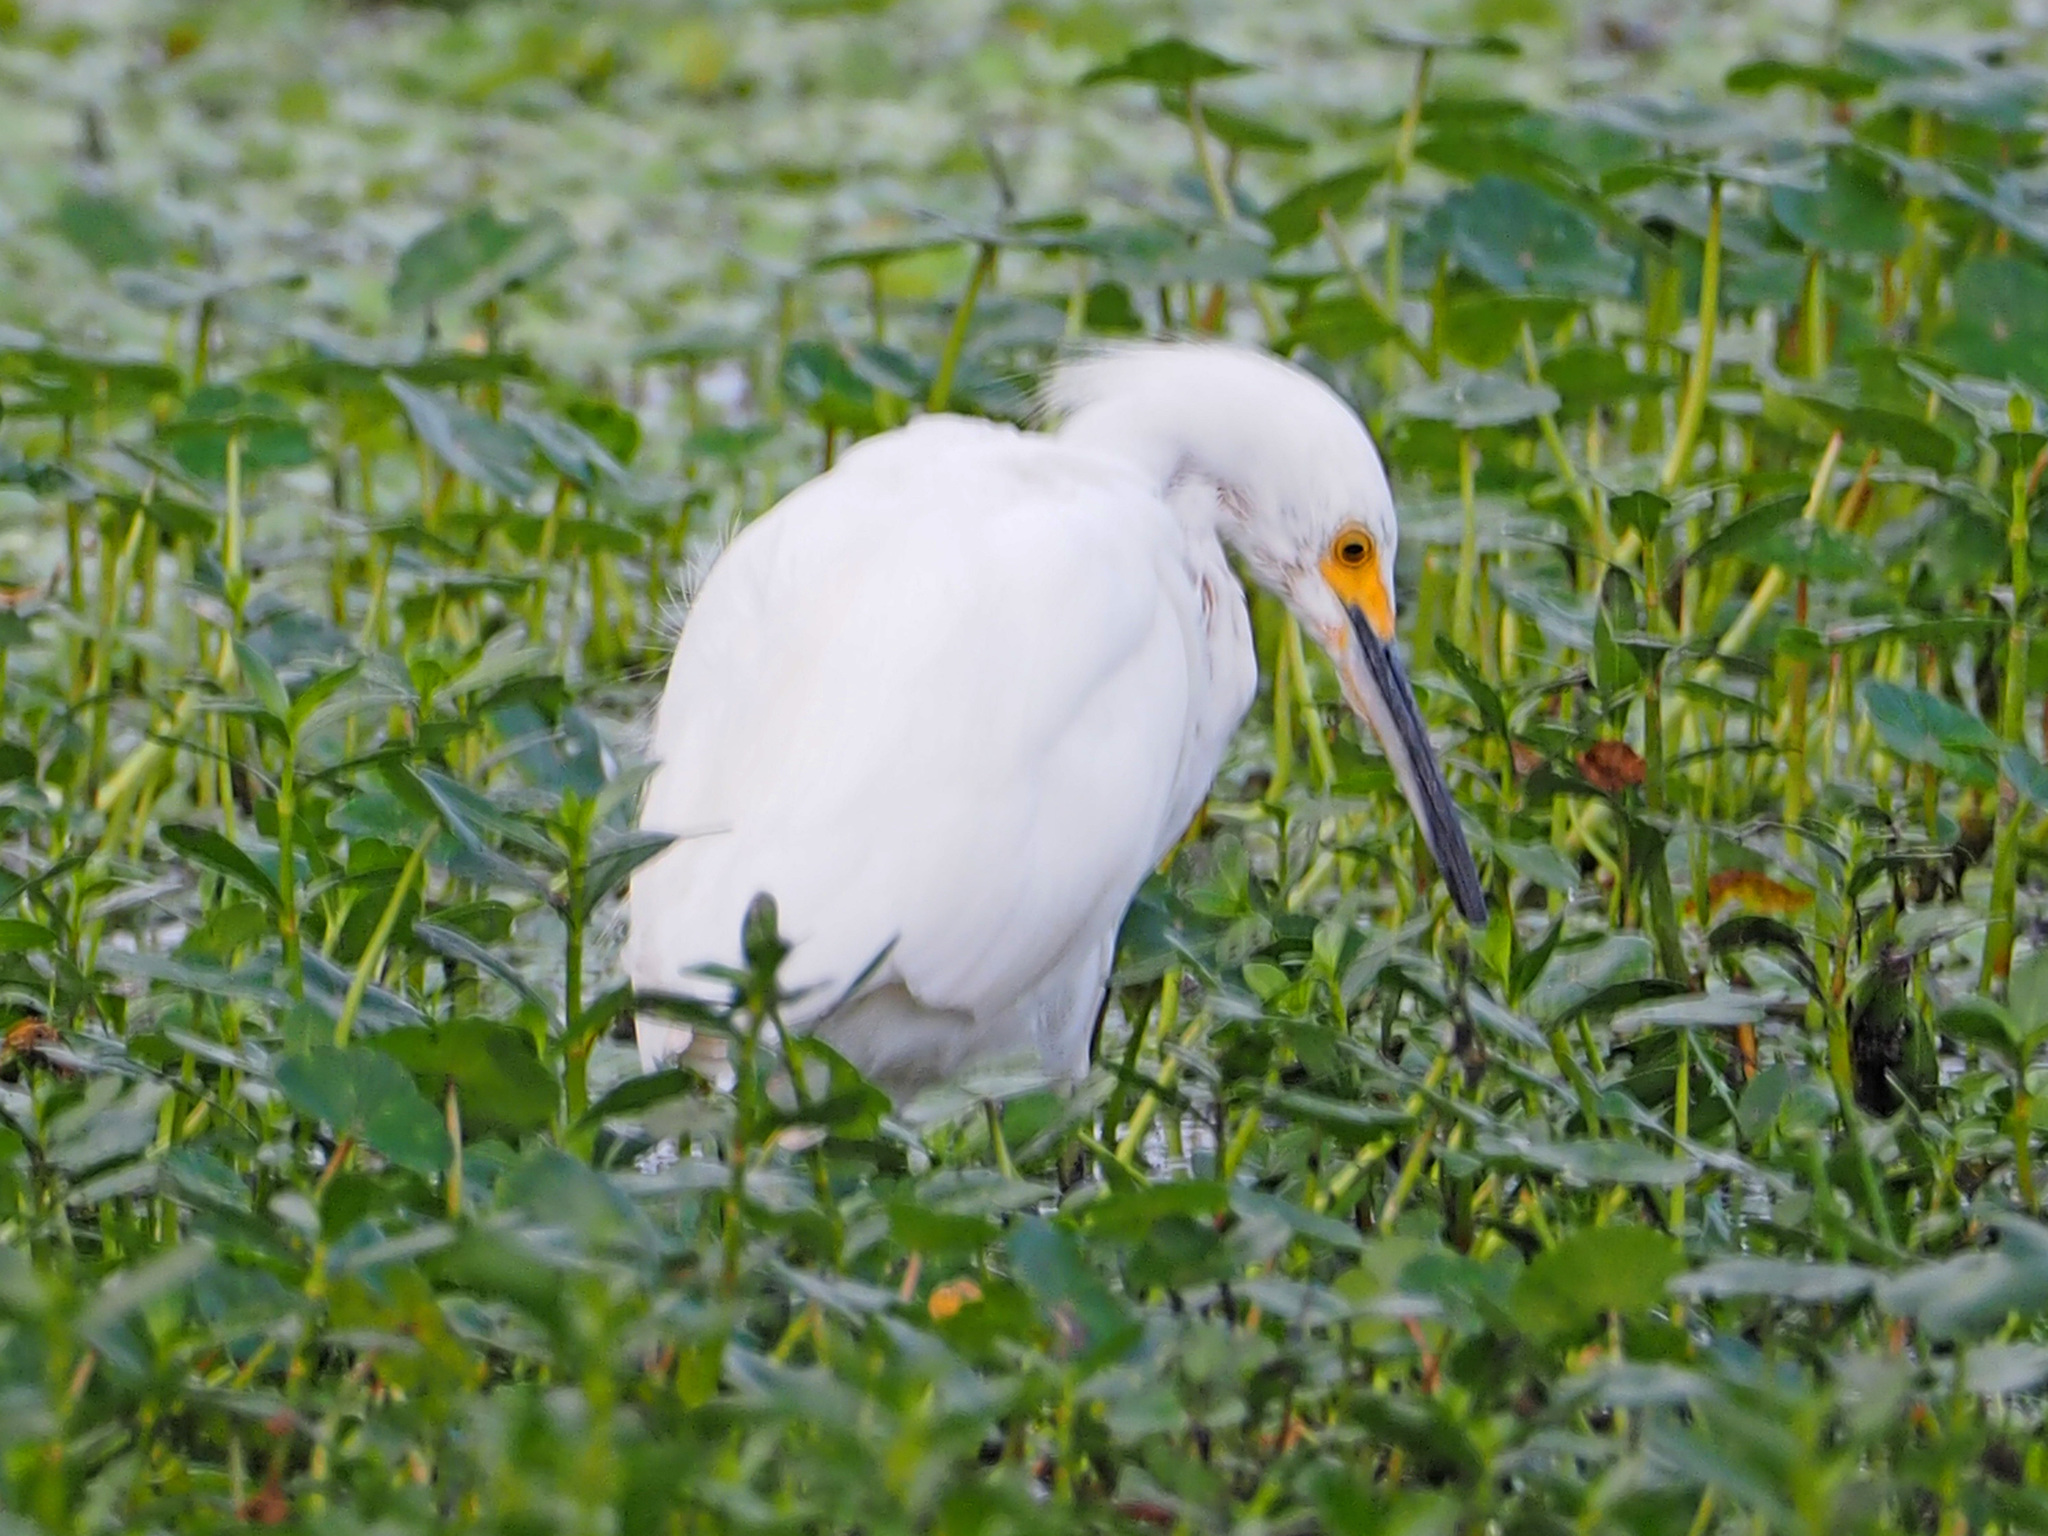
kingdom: Animalia
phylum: Chordata
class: Aves
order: Pelecaniformes
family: Ardeidae
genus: Egretta
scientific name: Egretta thula
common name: Snowy egret
